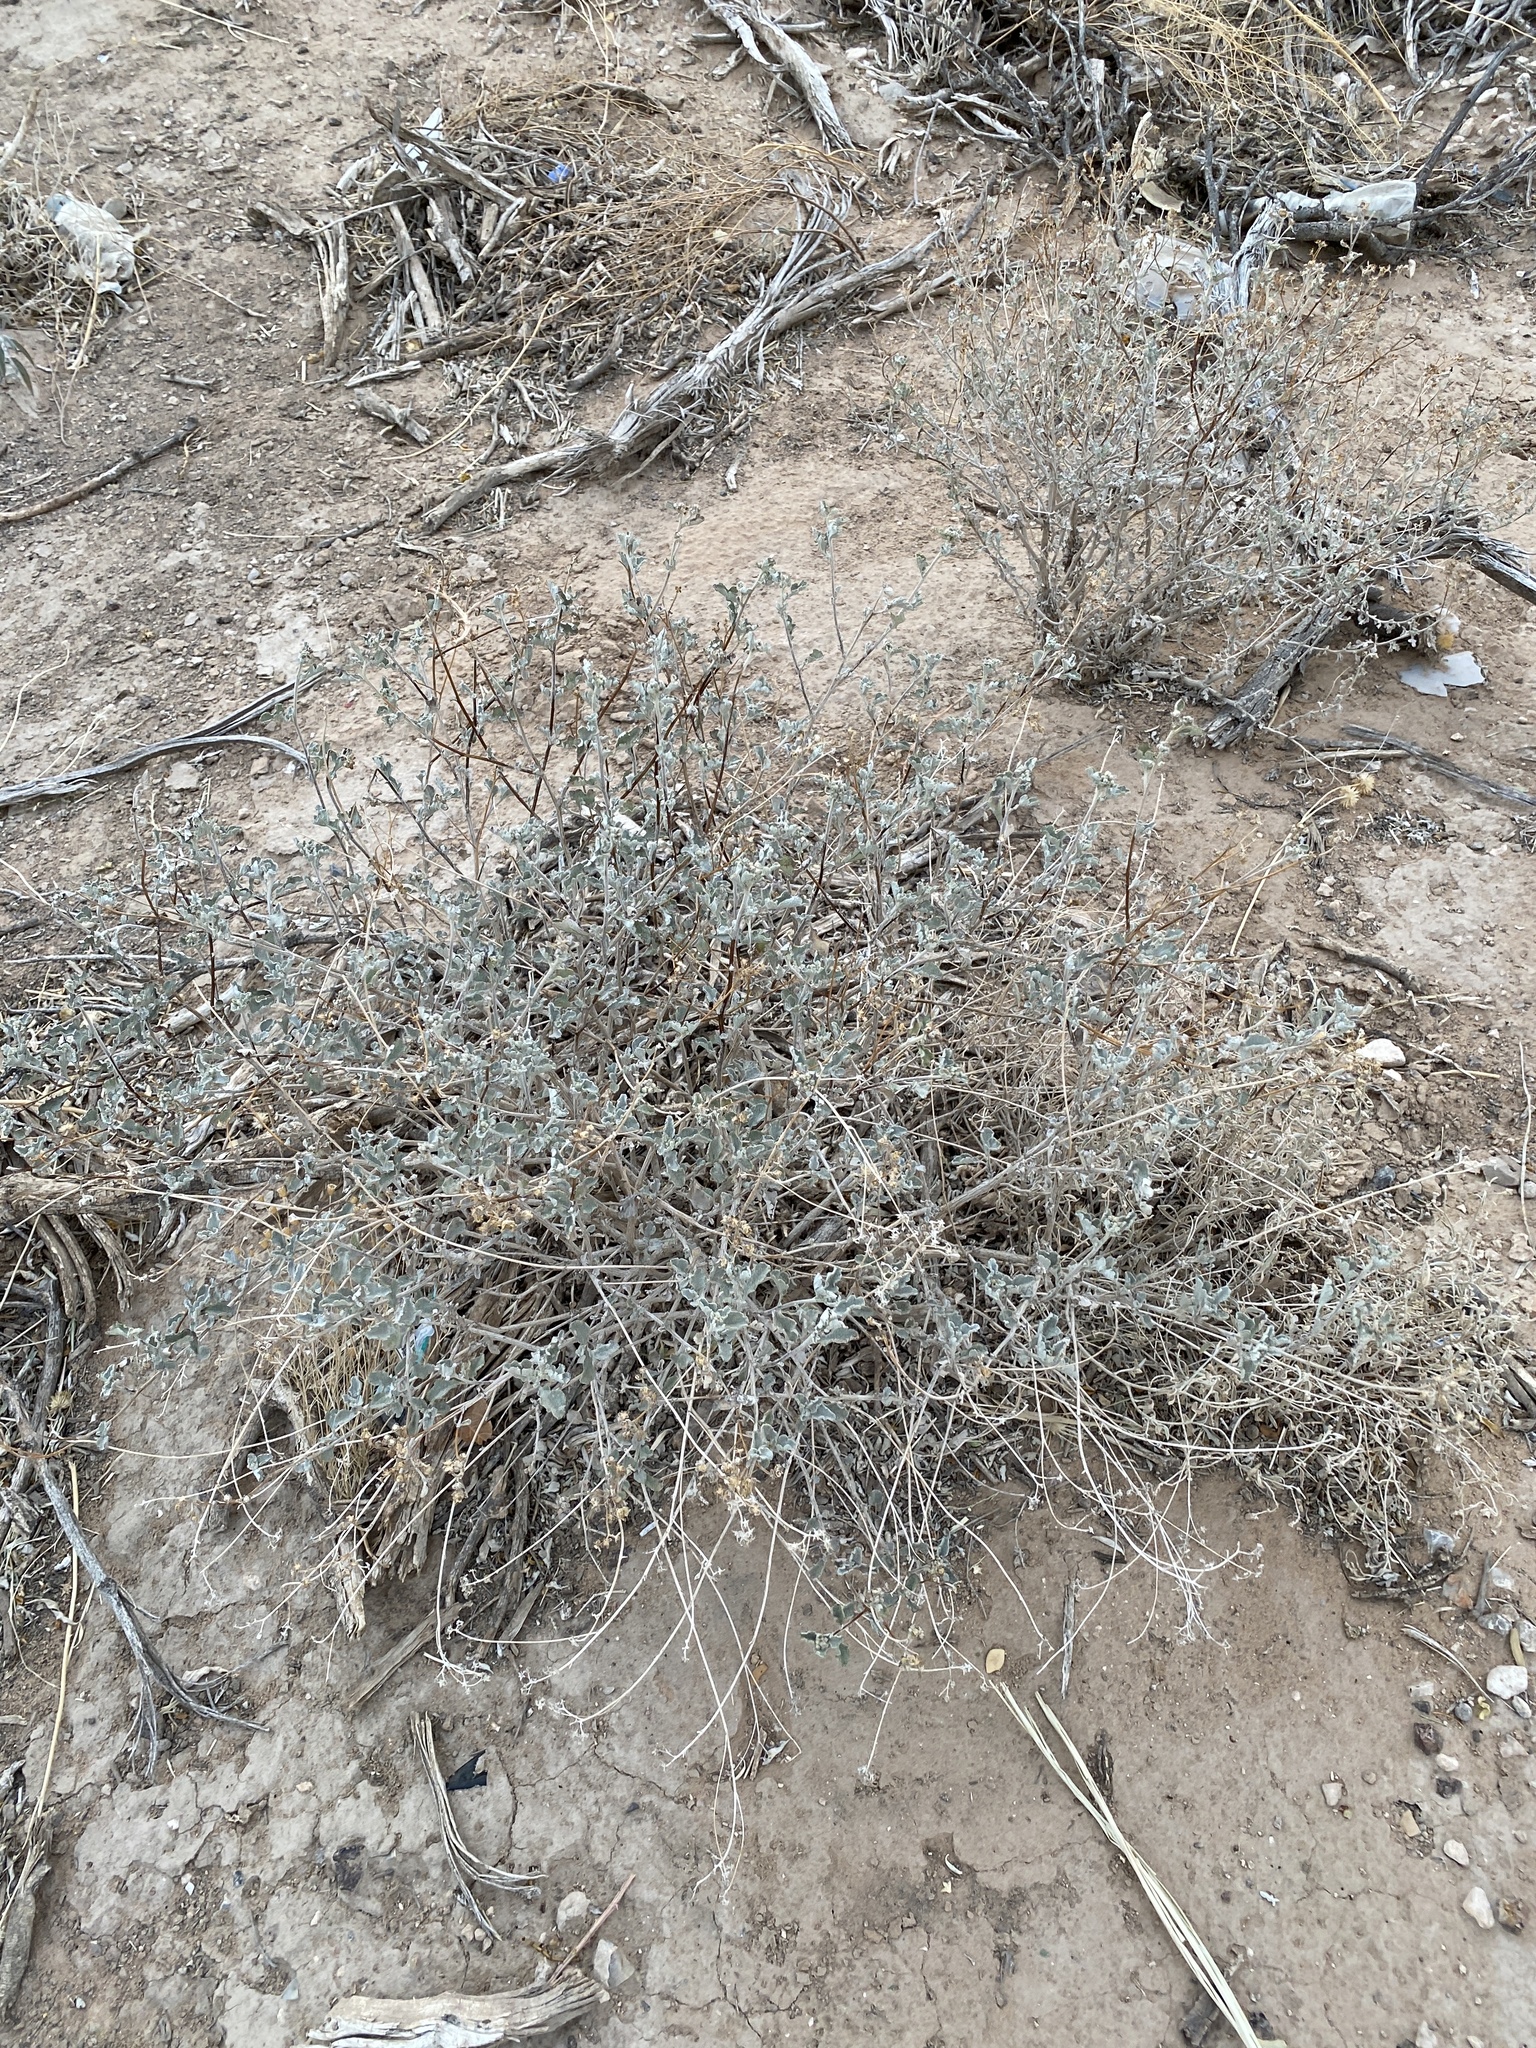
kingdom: Plantae
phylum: Tracheophyta
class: Magnoliopsida
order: Asterales
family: Asteraceae
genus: Parthenium
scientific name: Parthenium incanum
